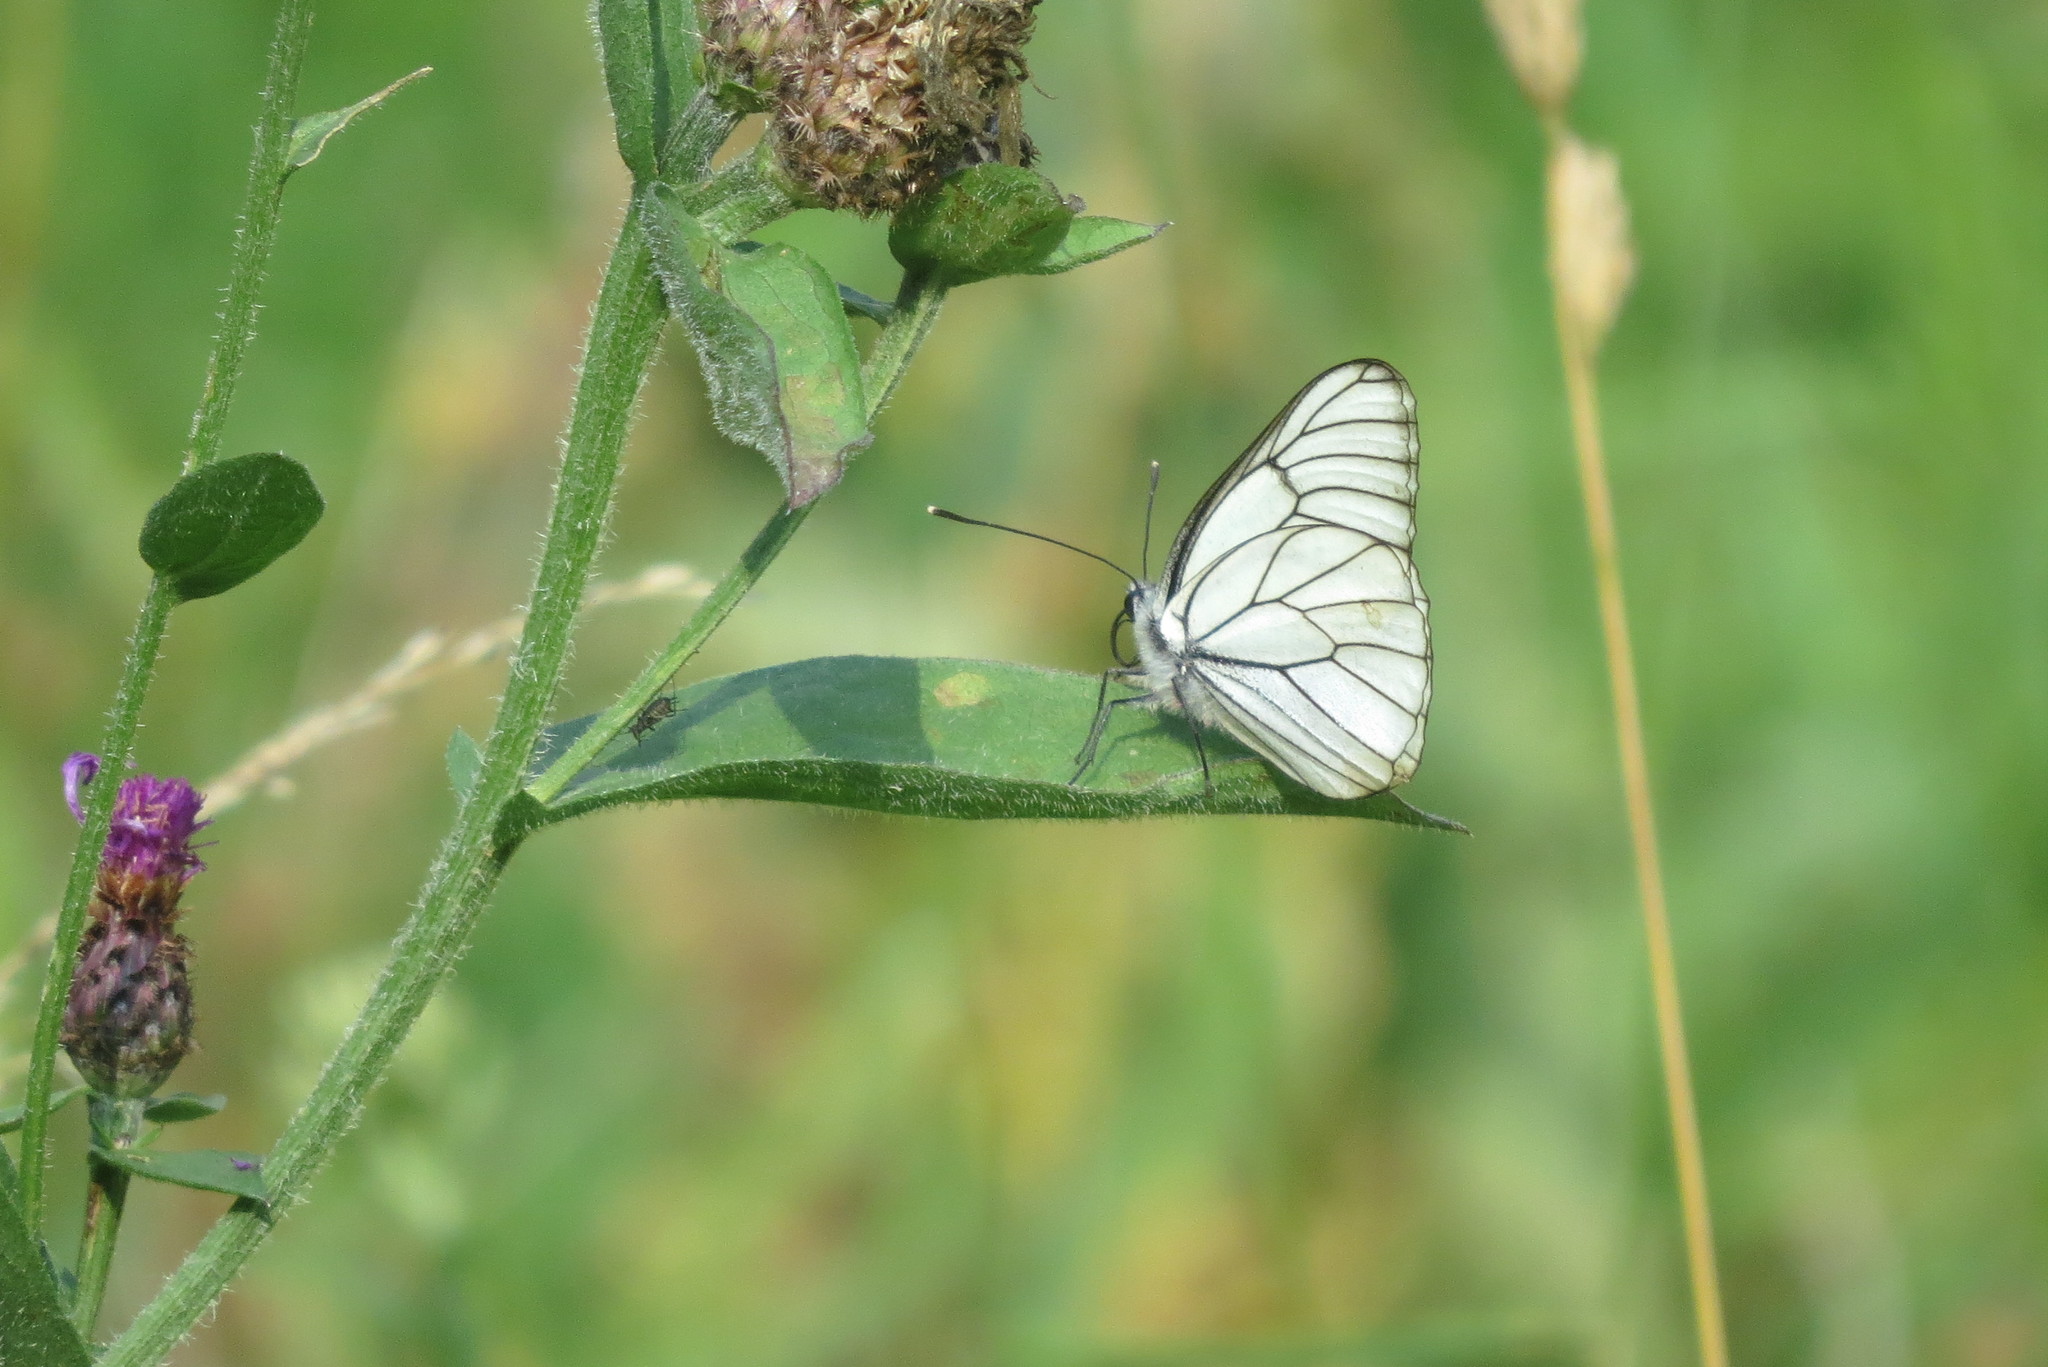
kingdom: Animalia
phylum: Arthropoda
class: Insecta
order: Lepidoptera
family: Pieridae
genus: Aporia
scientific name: Aporia crataegi
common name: Black-veined white
